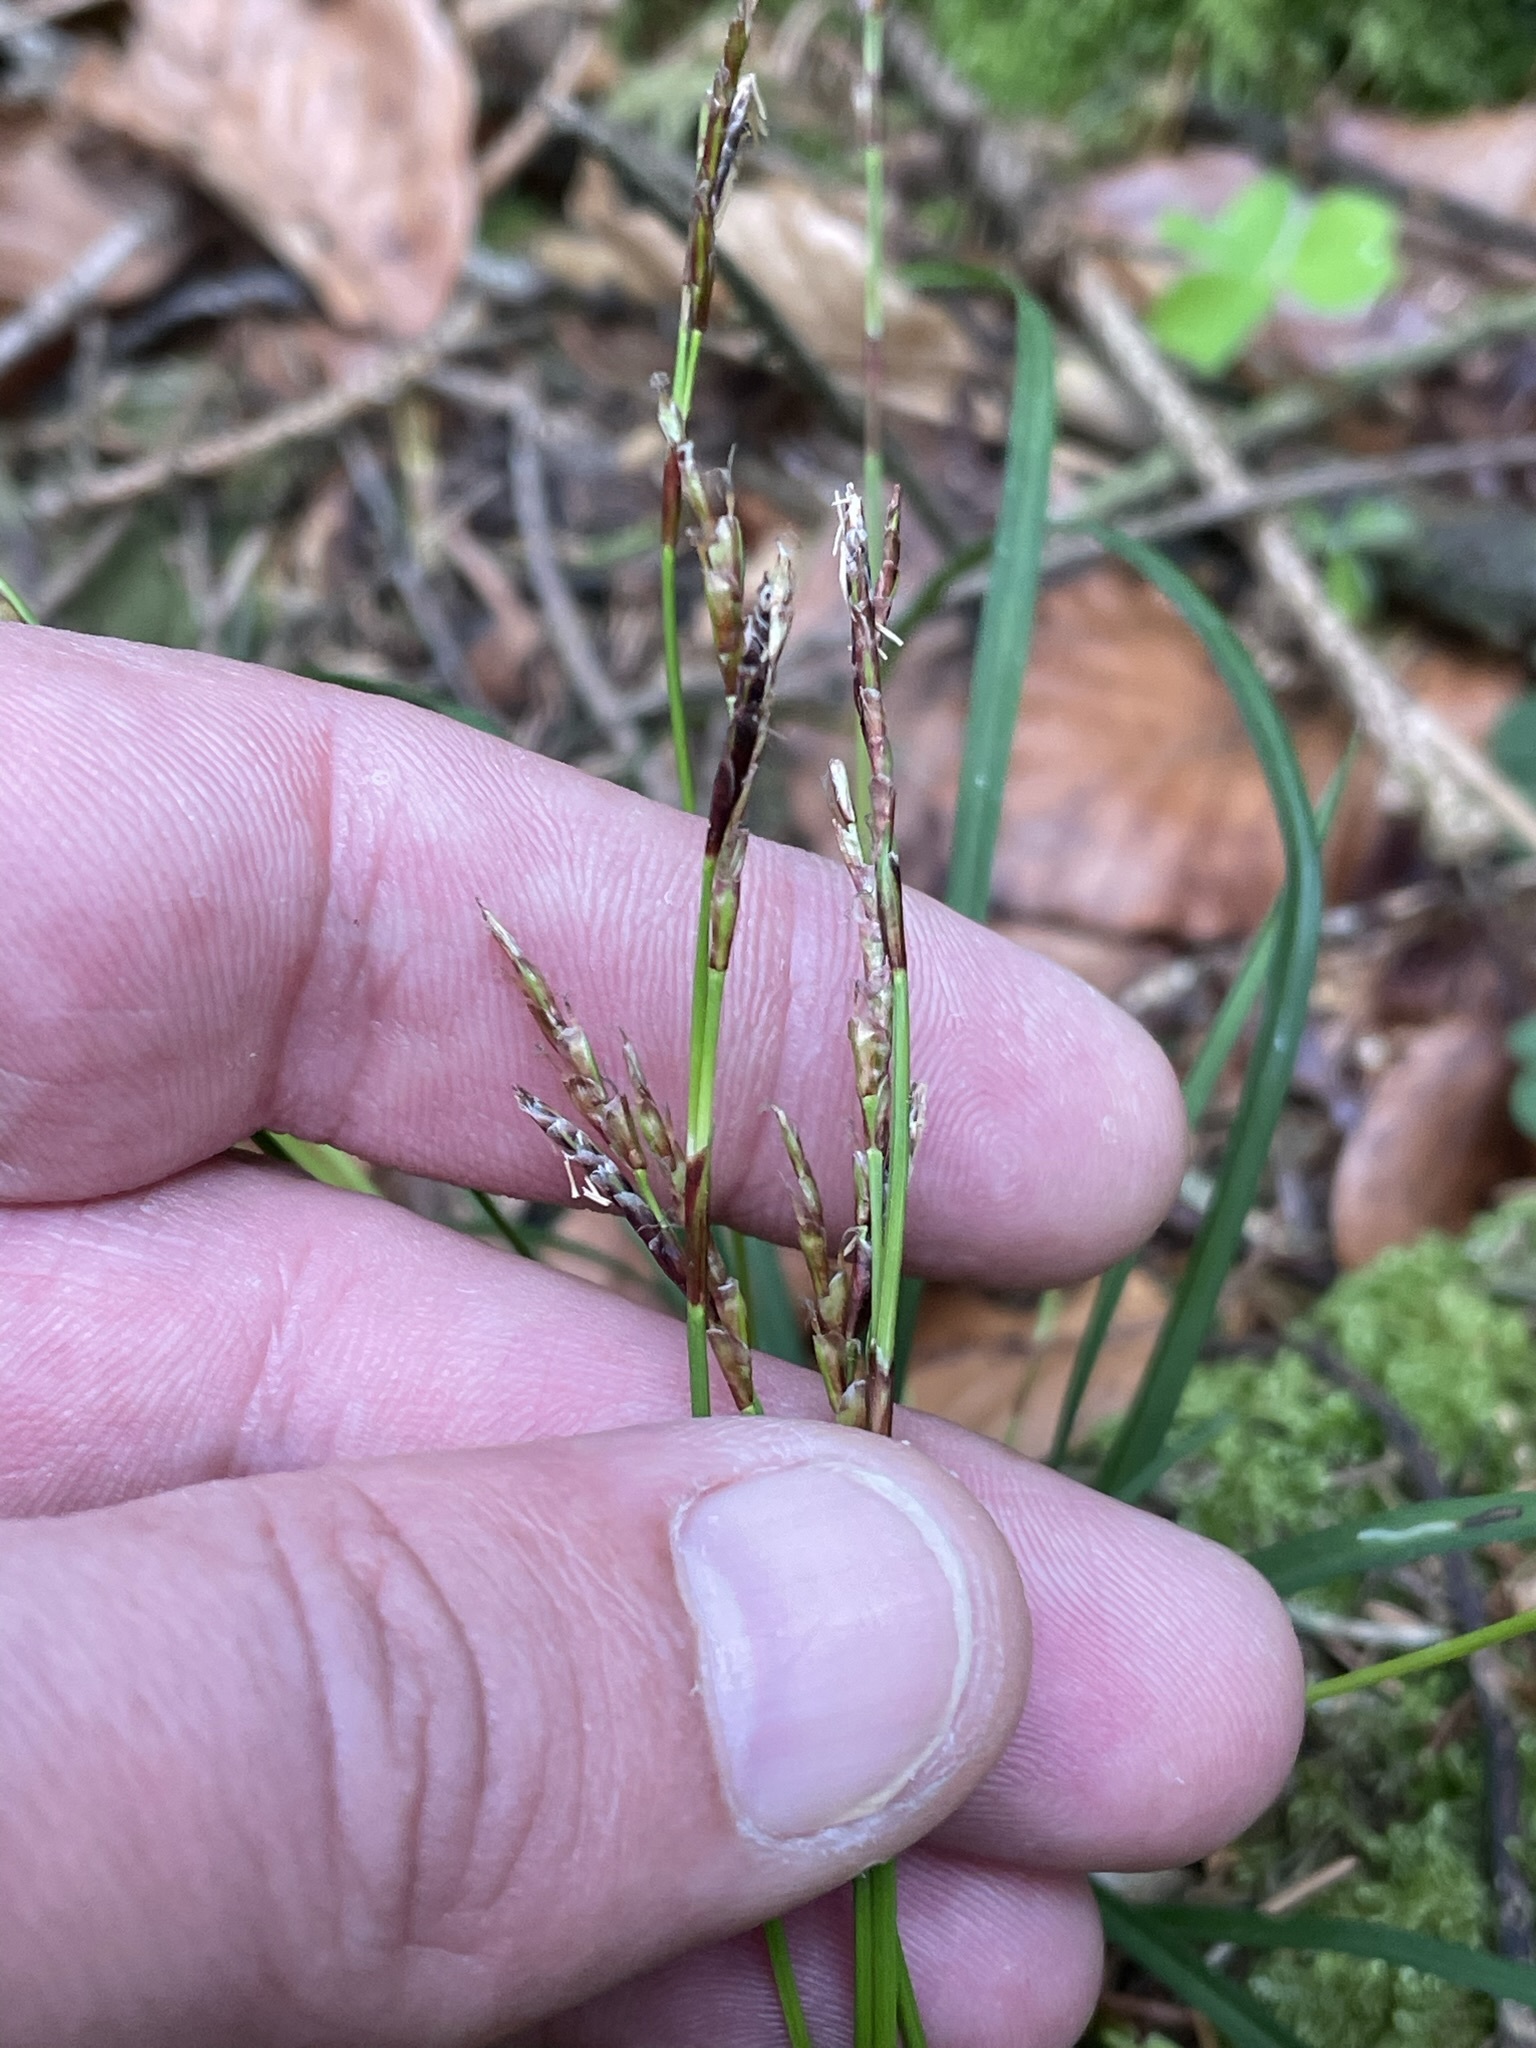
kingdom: Plantae
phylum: Tracheophyta
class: Liliopsida
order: Poales
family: Cyperaceae
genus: Carex
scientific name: Carex digitata
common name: Fingered sedge
